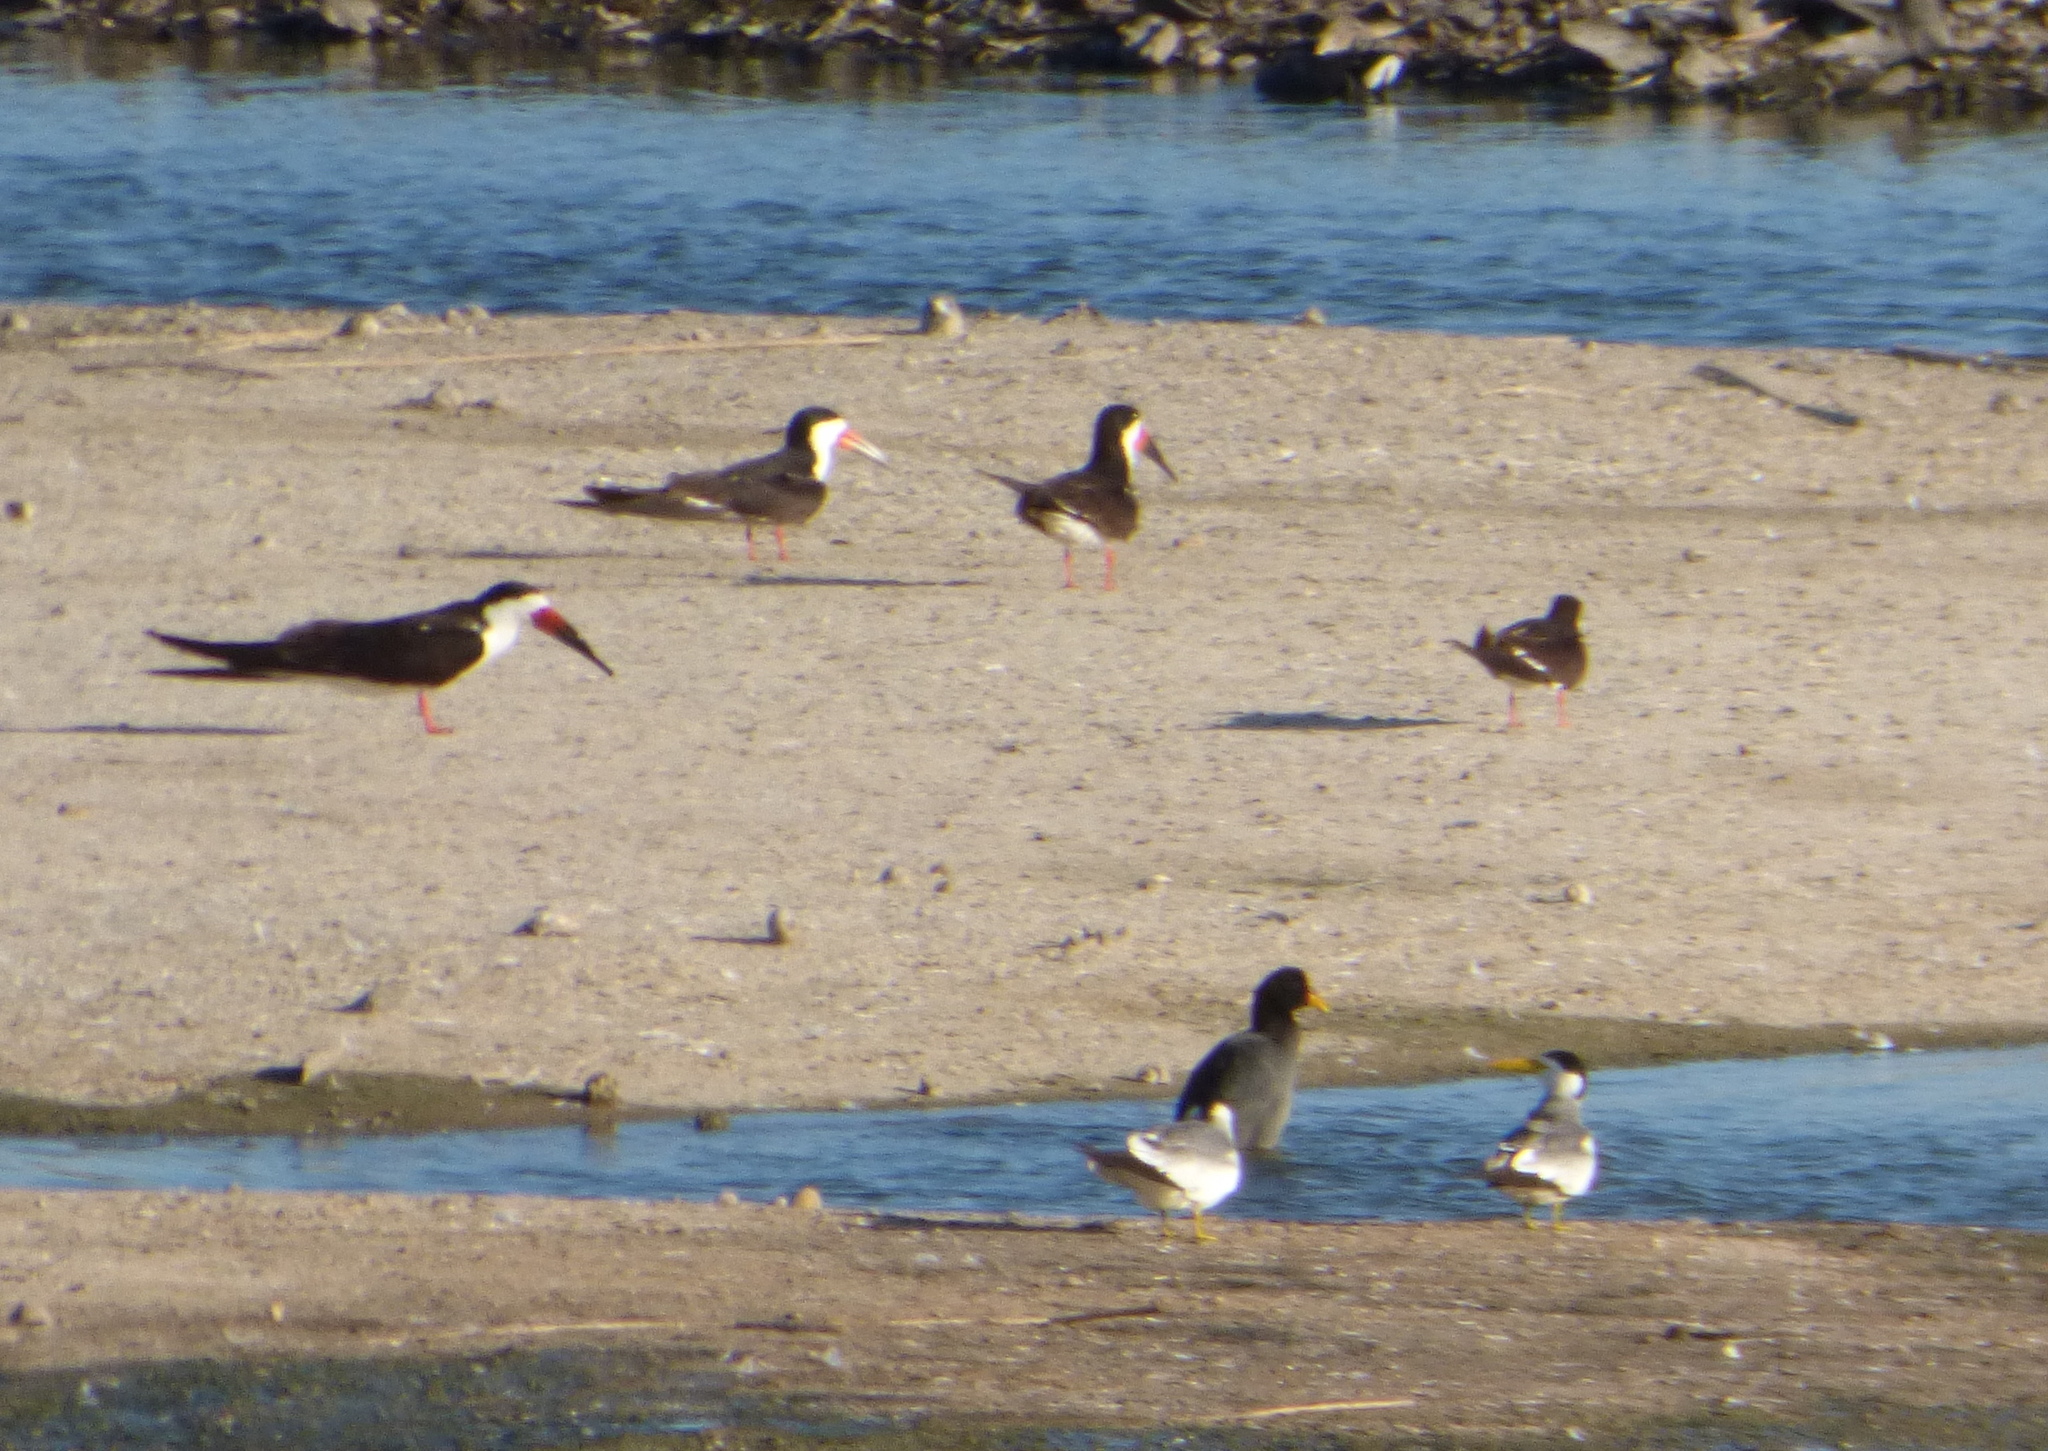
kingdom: Animalia
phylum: Chordata
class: Aves
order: Charadriiformes
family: Laridae
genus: Rynchops
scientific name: Rynchops niger
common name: Black skimmer
